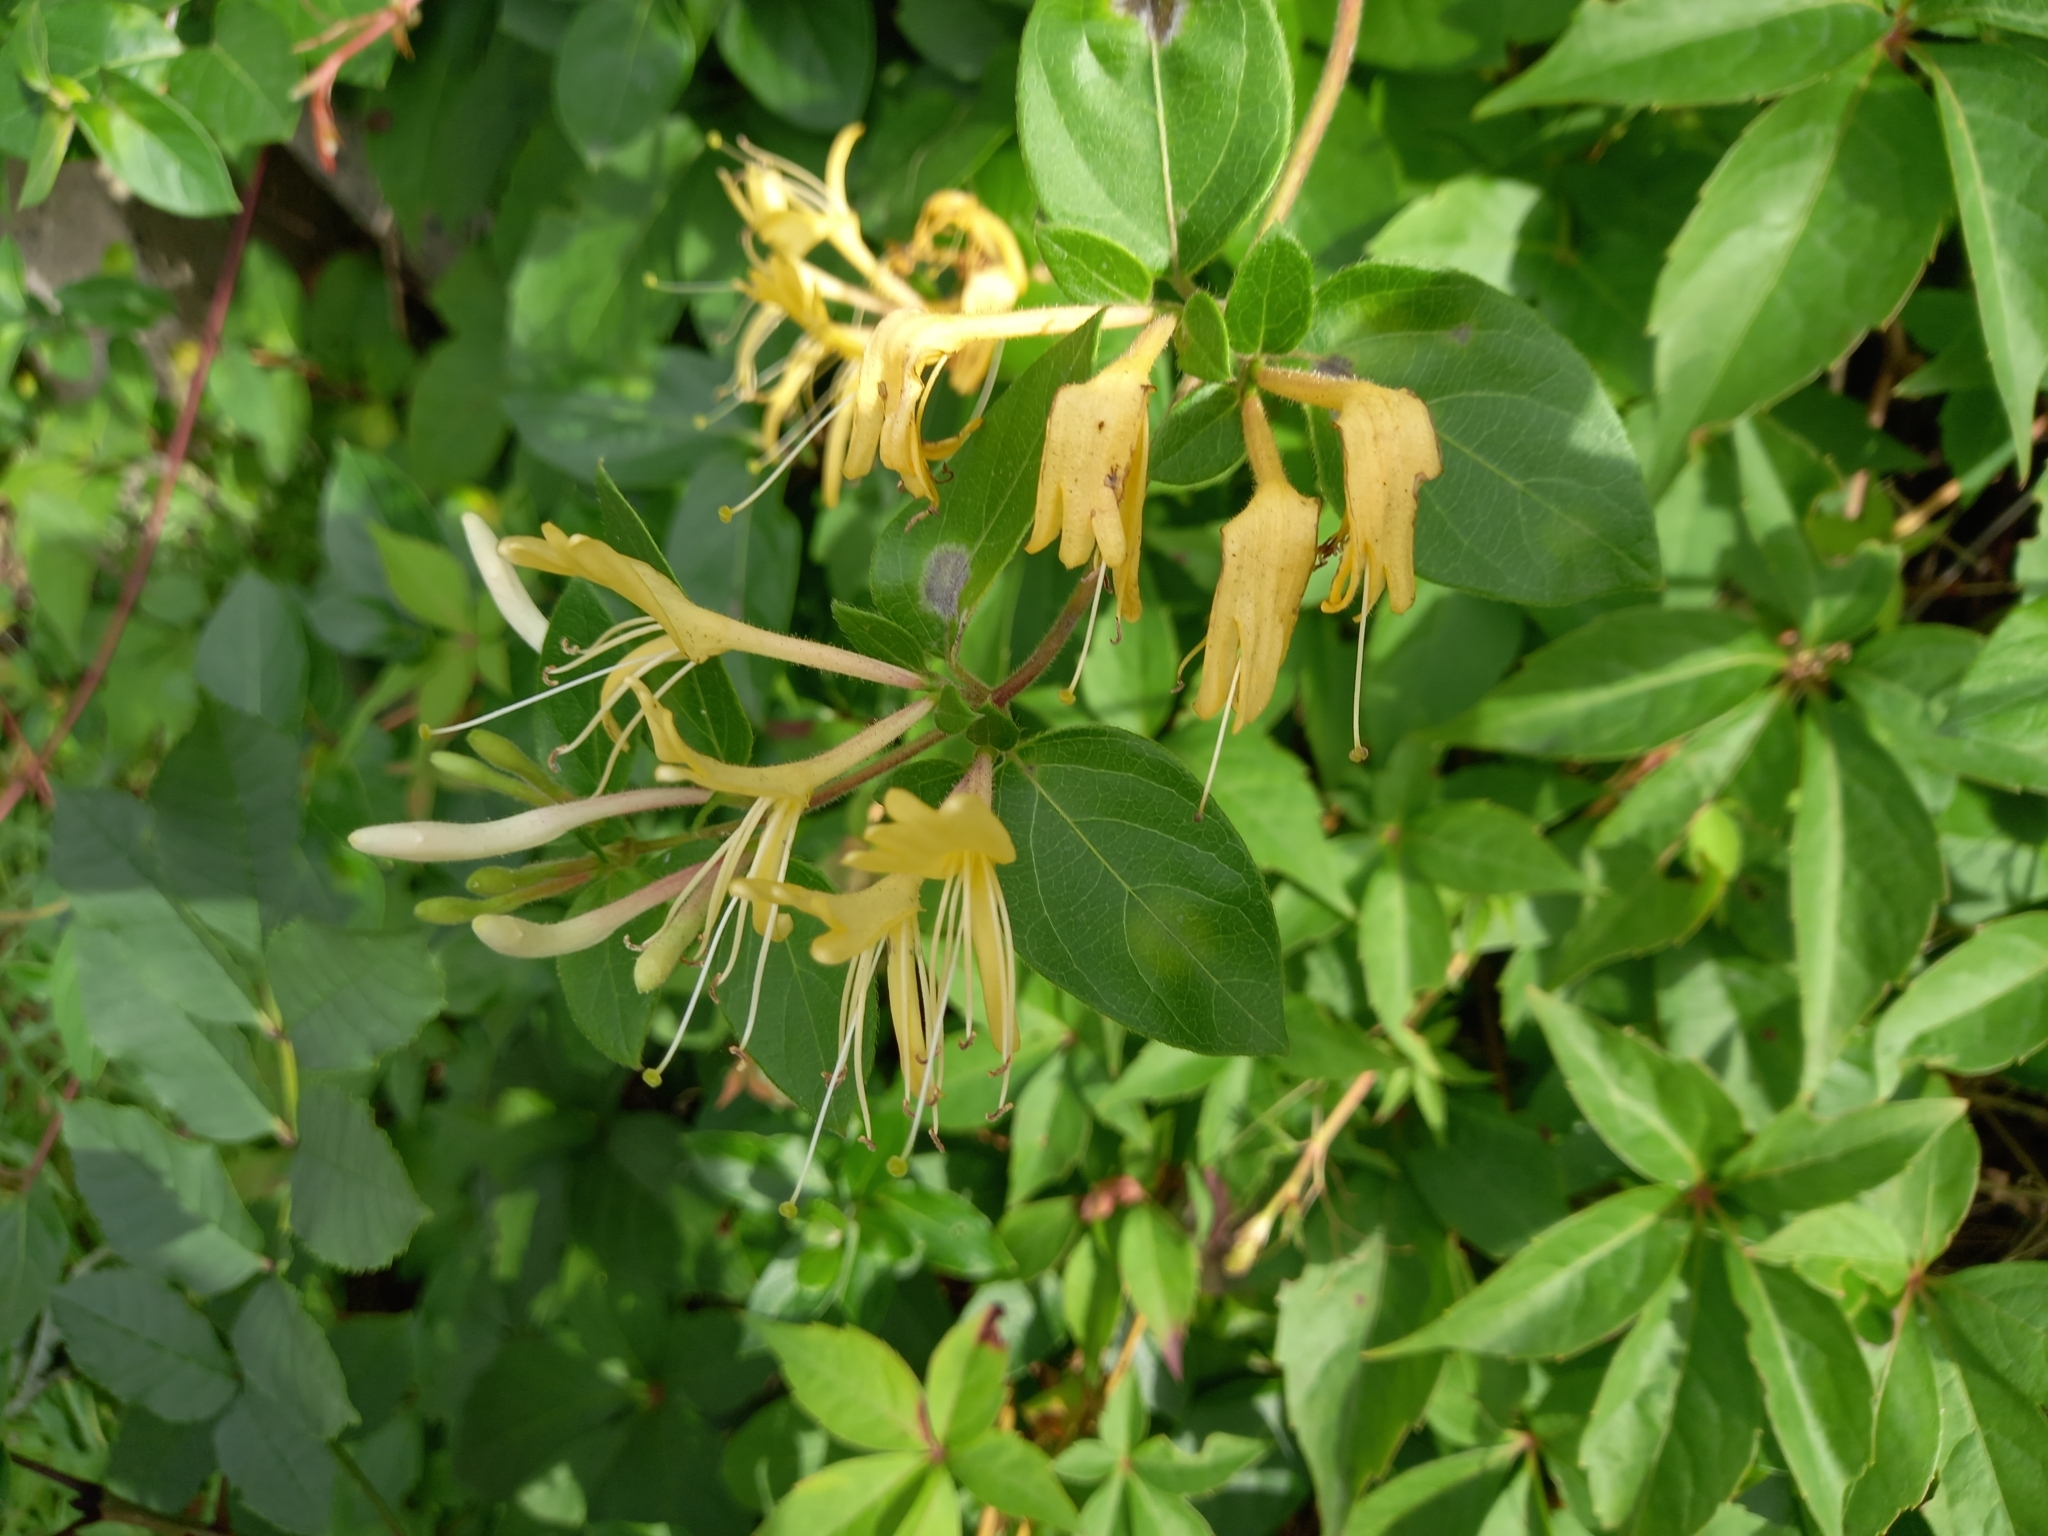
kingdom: Plantae
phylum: Tracheophyta
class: Magnoliopsida
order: Dipsacales
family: Caprifoliaceae
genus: Lonicera
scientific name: Lonicera japonica
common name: Japanese honeysuckle
